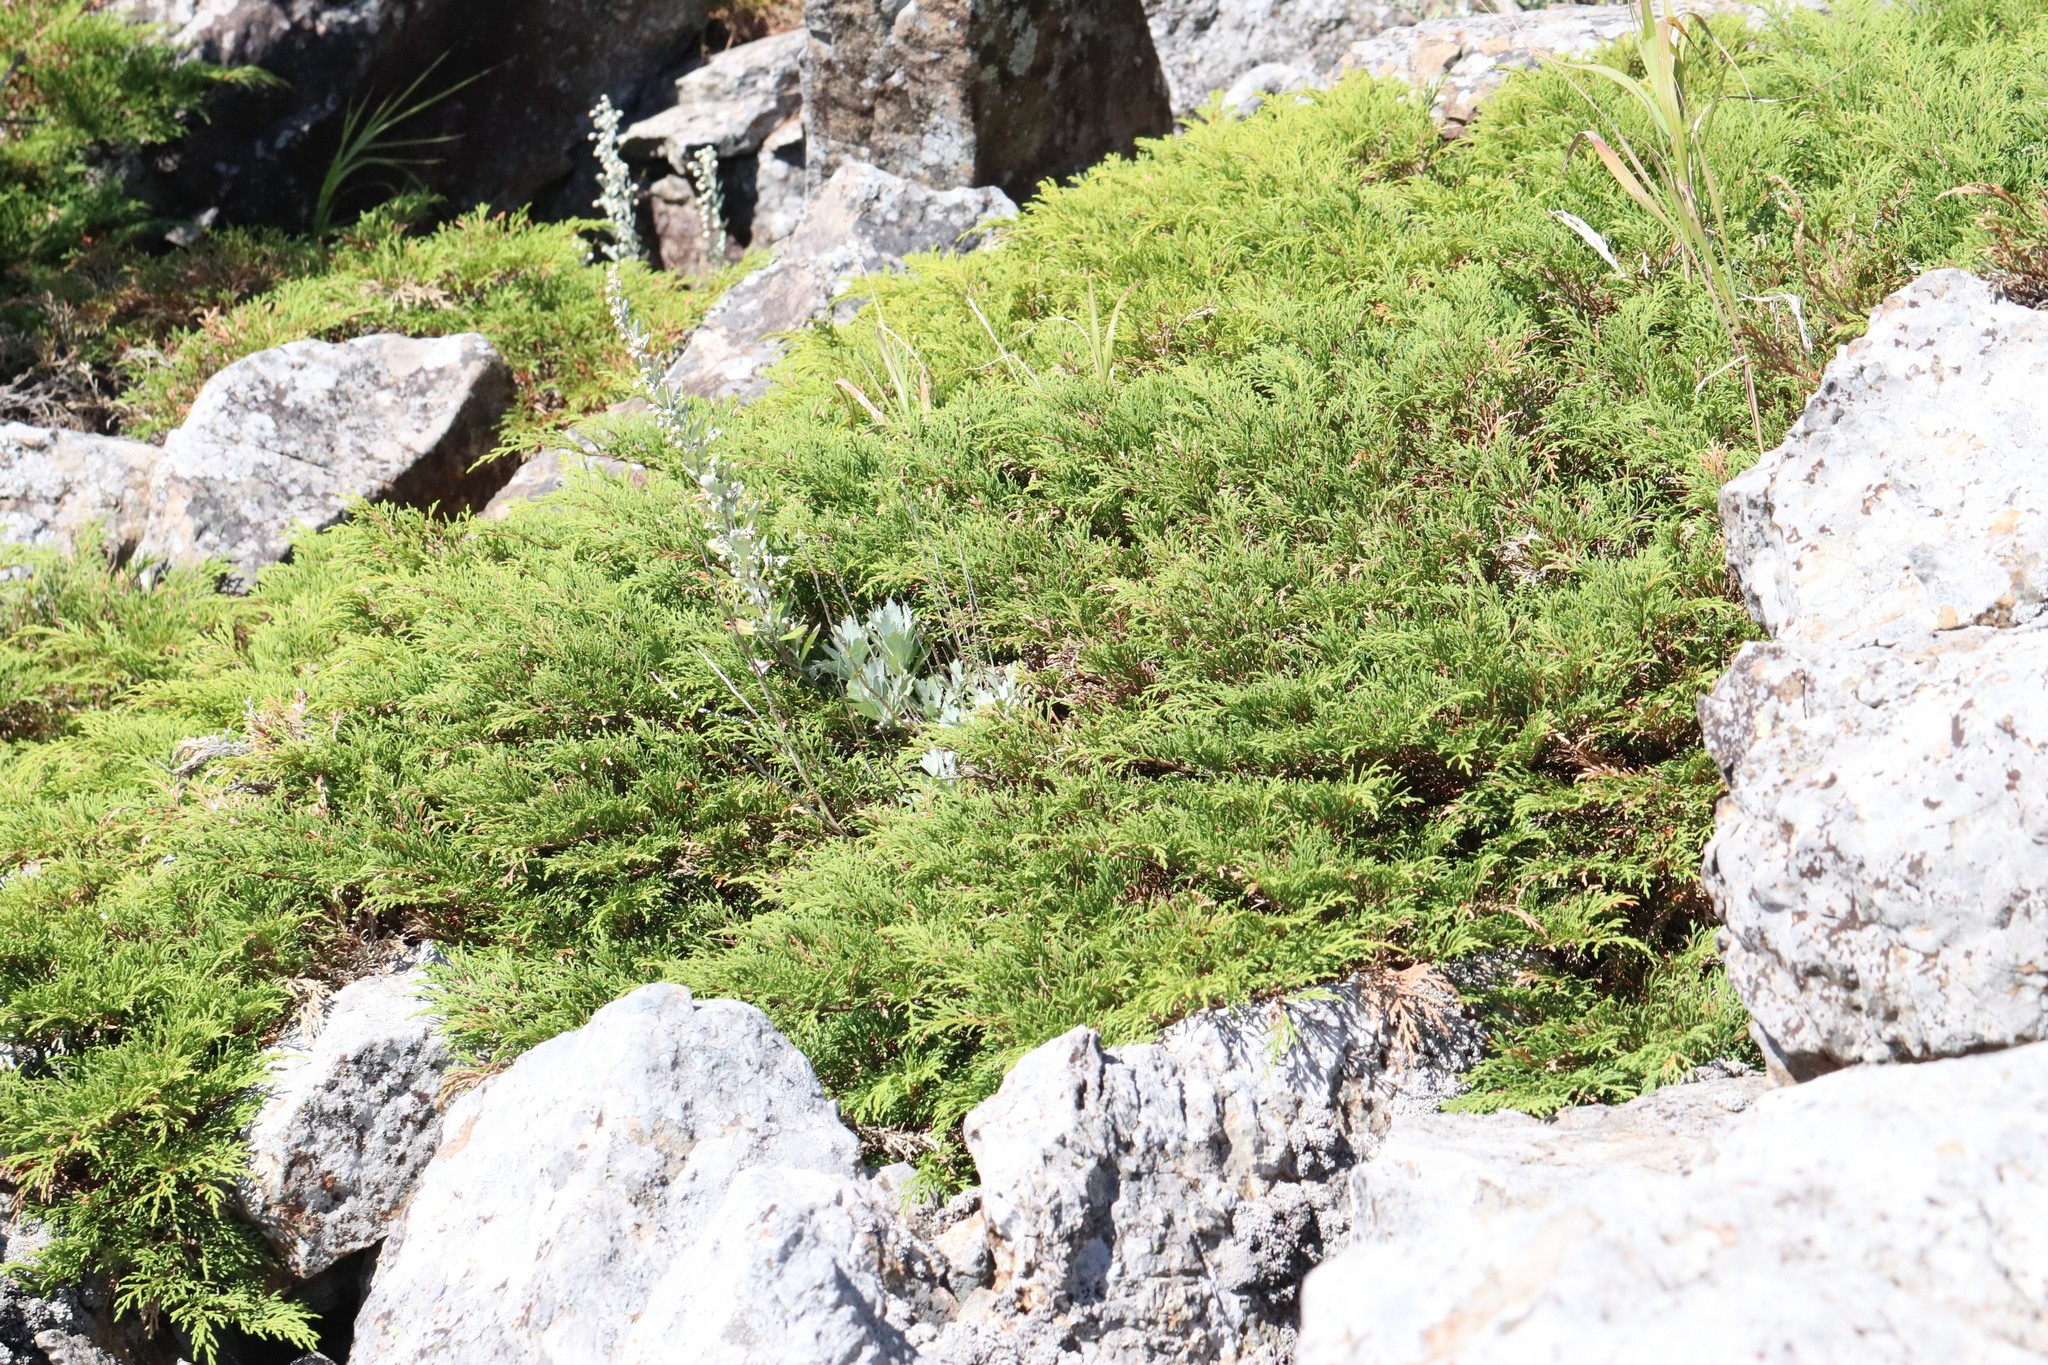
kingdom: Plantae
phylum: Tracheophyta
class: Pinopsida
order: Pinales
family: Cupressaceae
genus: Microbiota
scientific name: Microbiota decussata
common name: Siberian cypress
